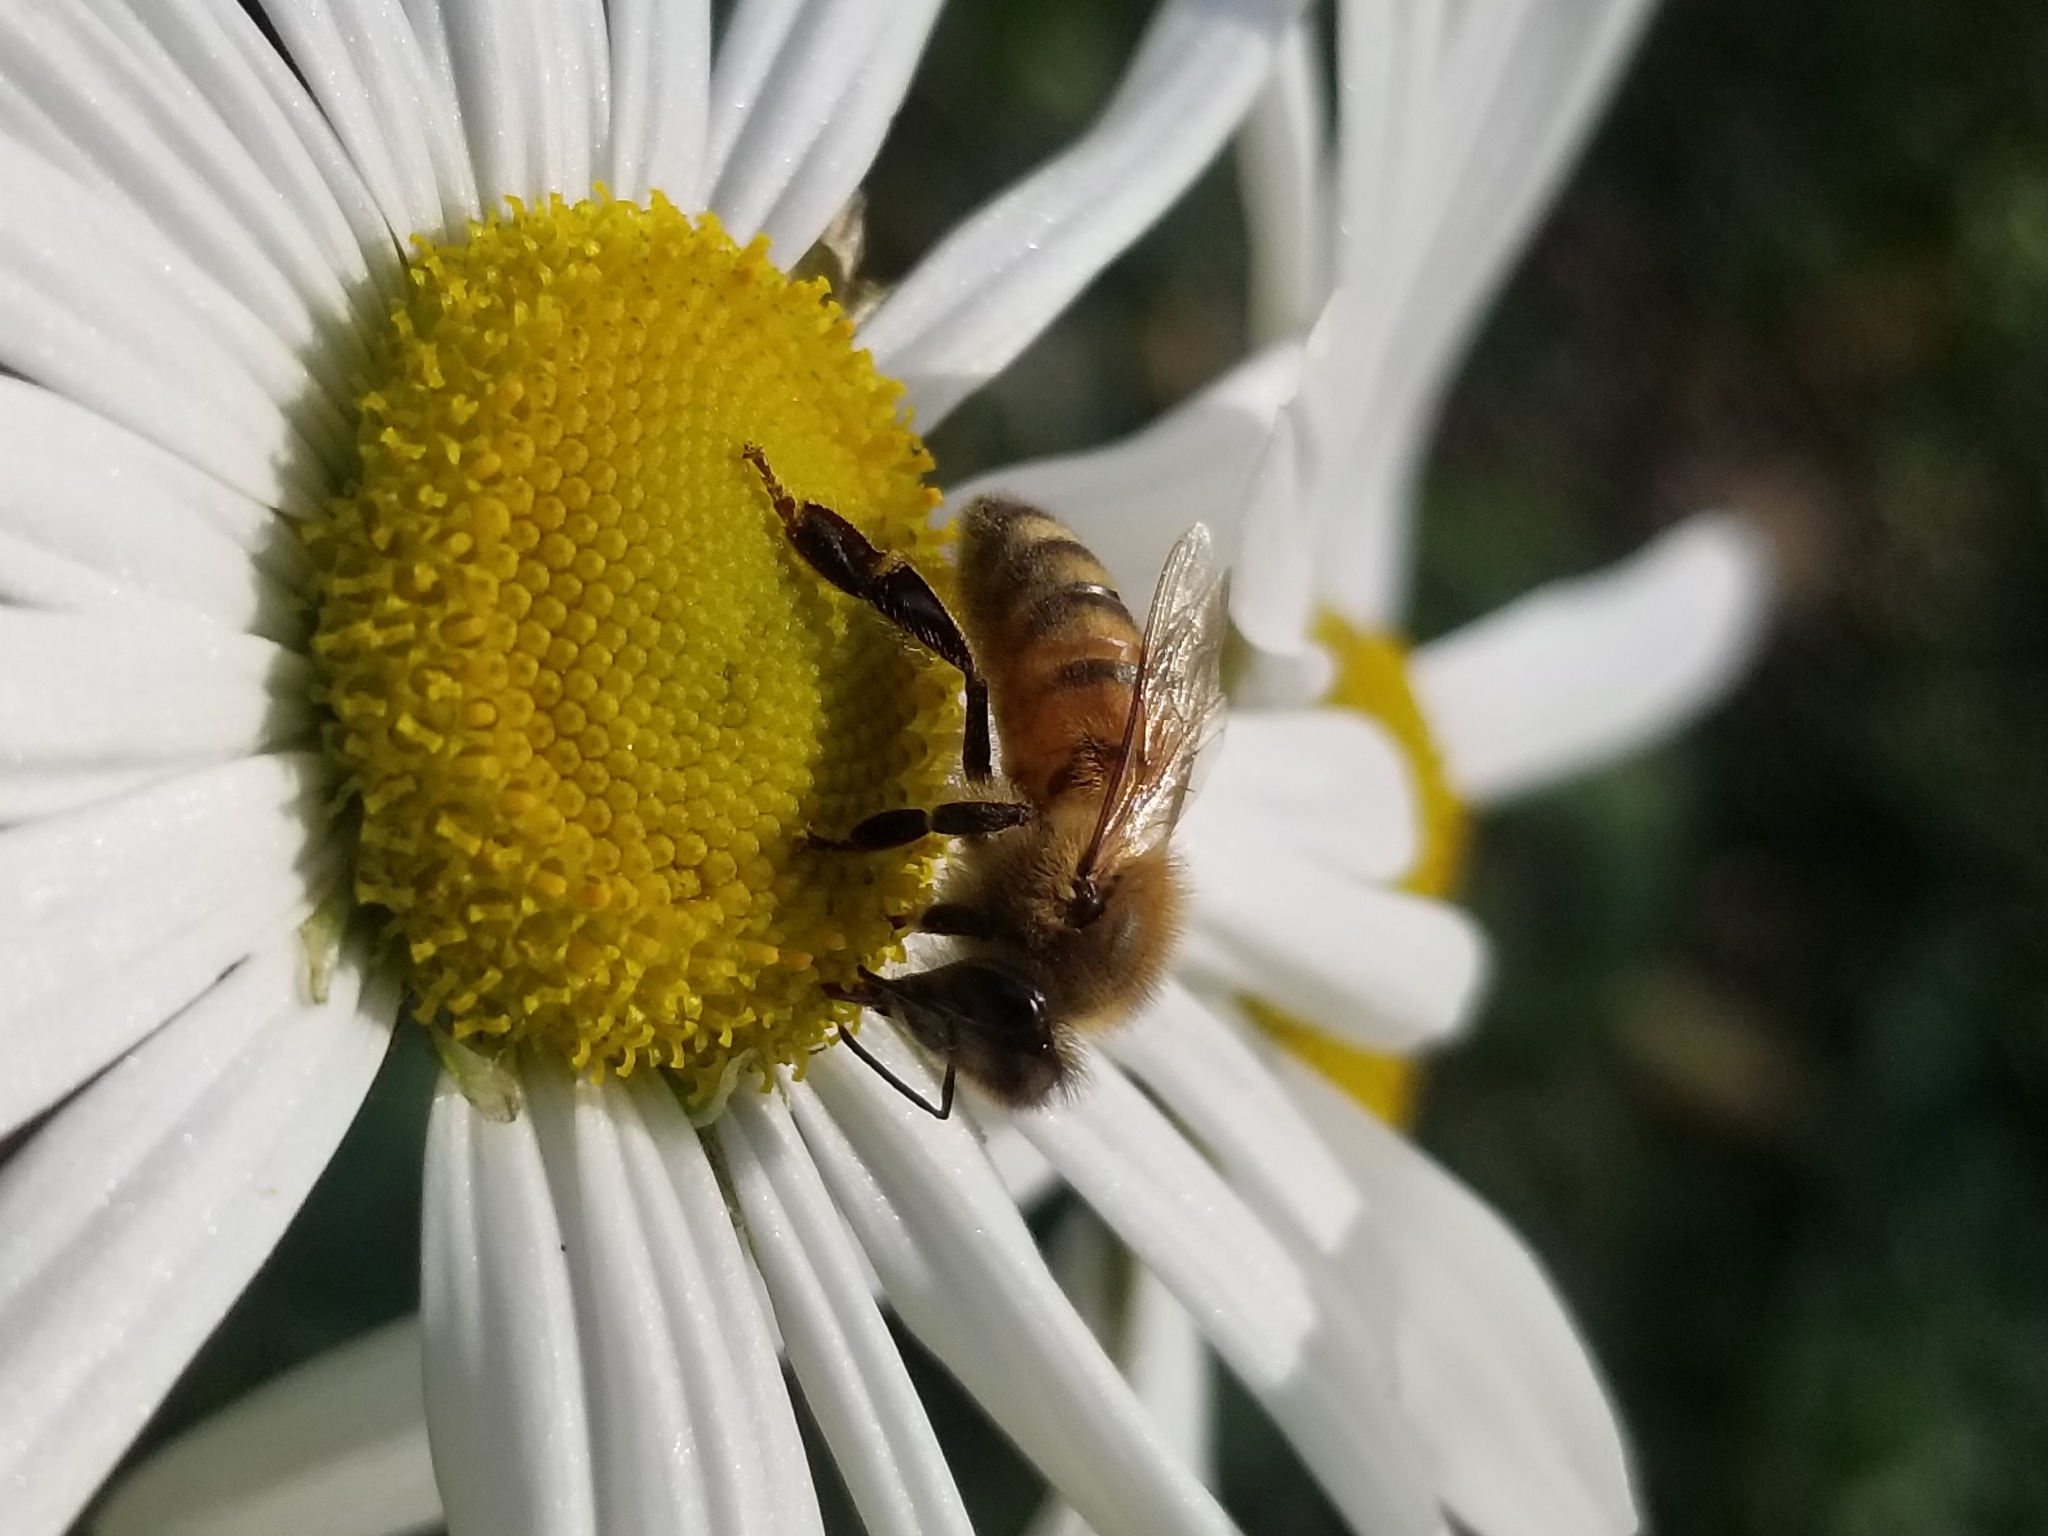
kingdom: Animalia
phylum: Arthropoda
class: Insecta
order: Hymenoptera
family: Apidae
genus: Apis
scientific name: Apis mellifera
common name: Honey bee
